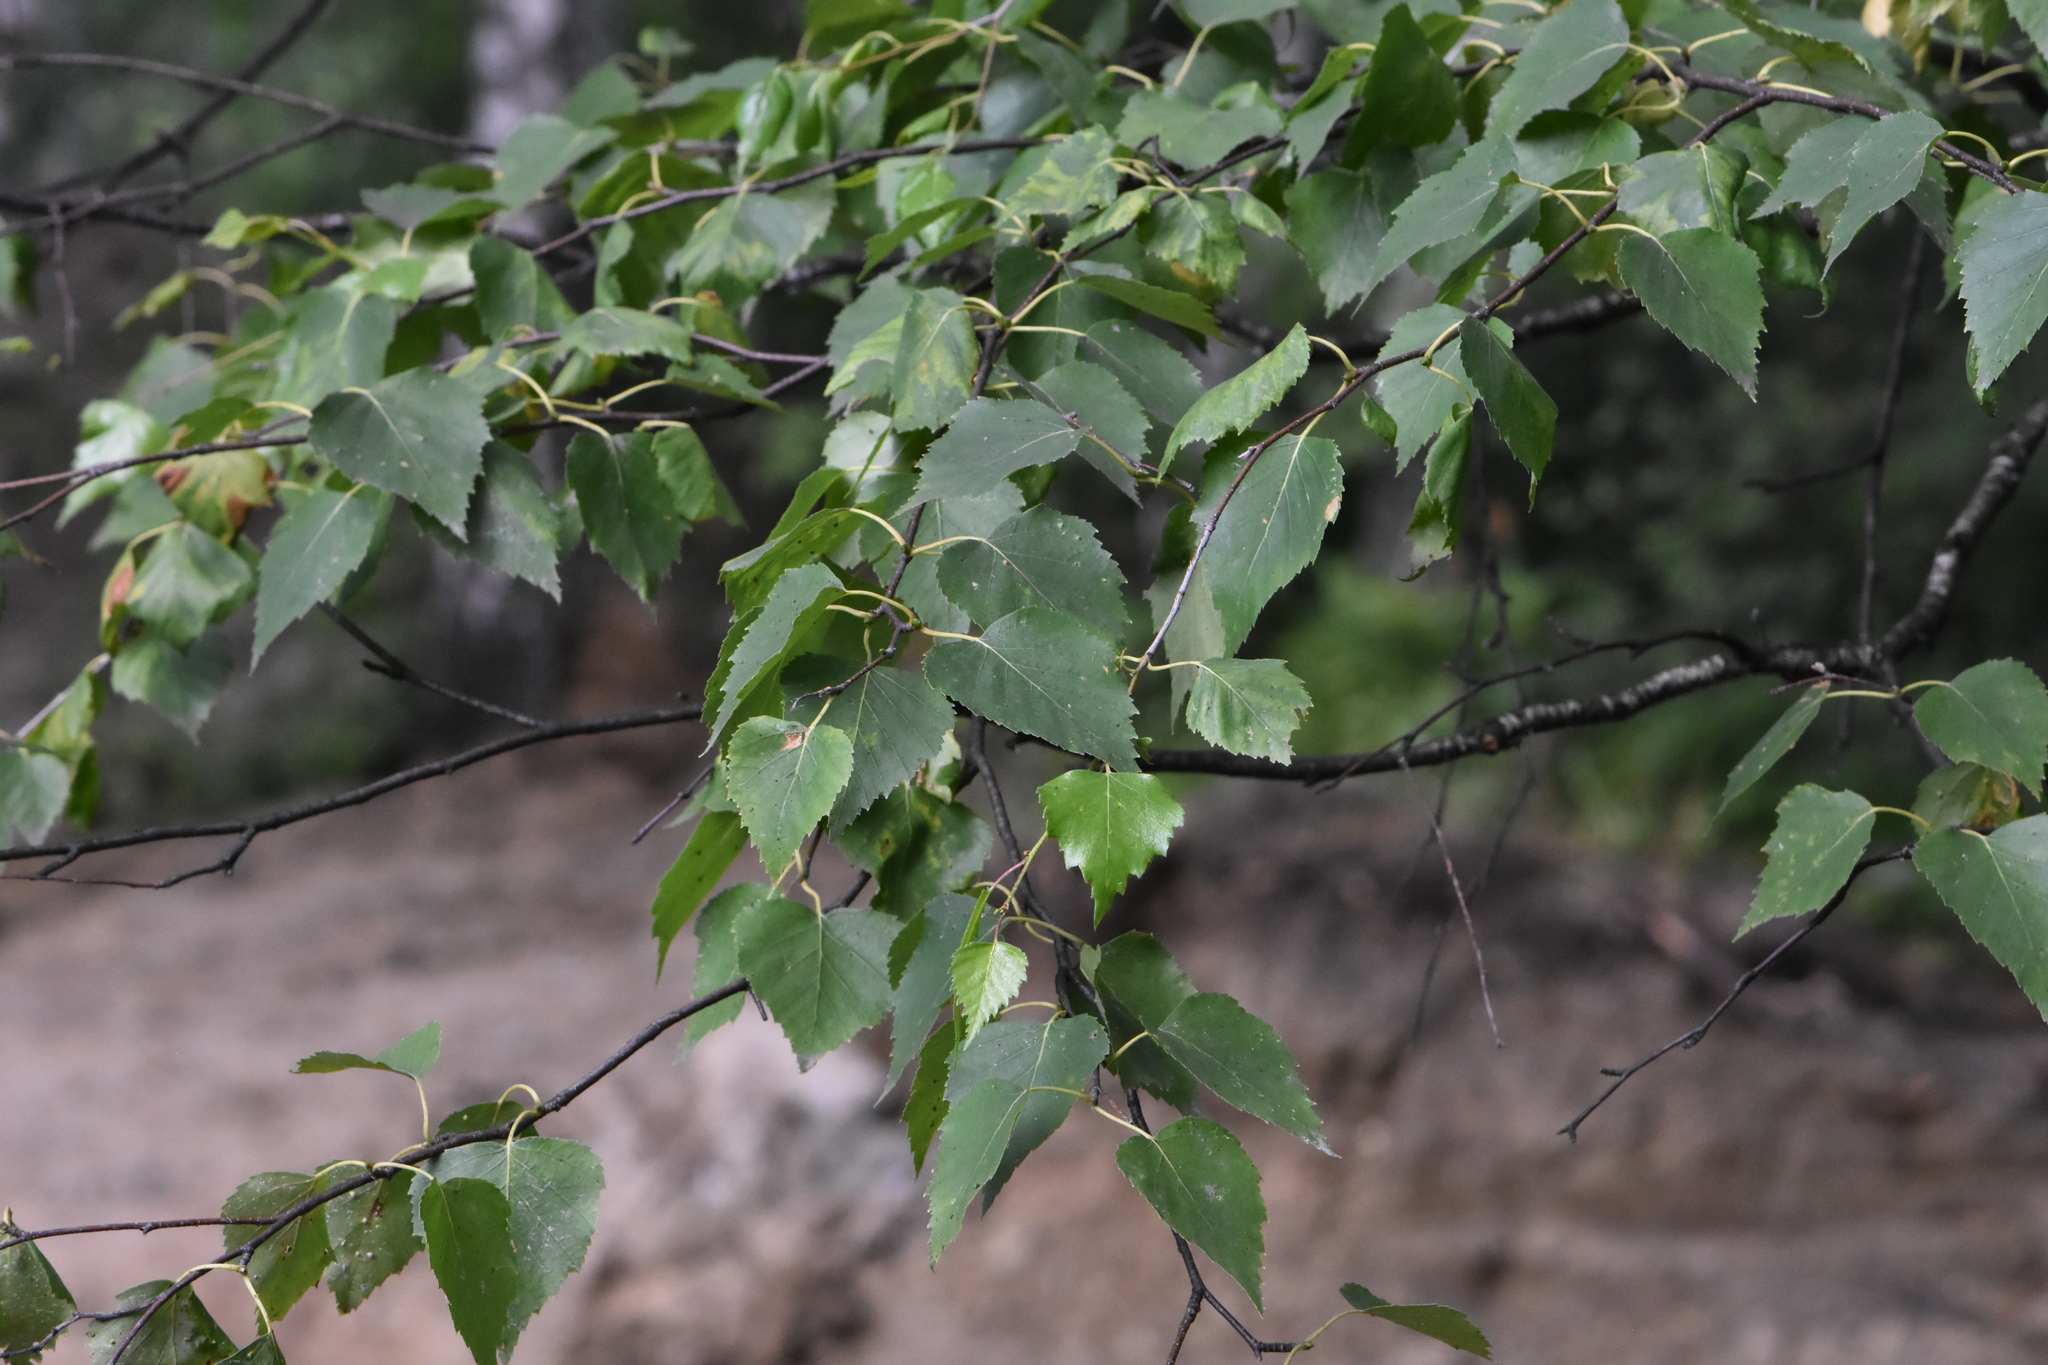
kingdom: Plantae
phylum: Tracheophyta
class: Magnoliopsida
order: Fagales
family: Betulaceae
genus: Betula
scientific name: Betula pubescens
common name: Downy birch
